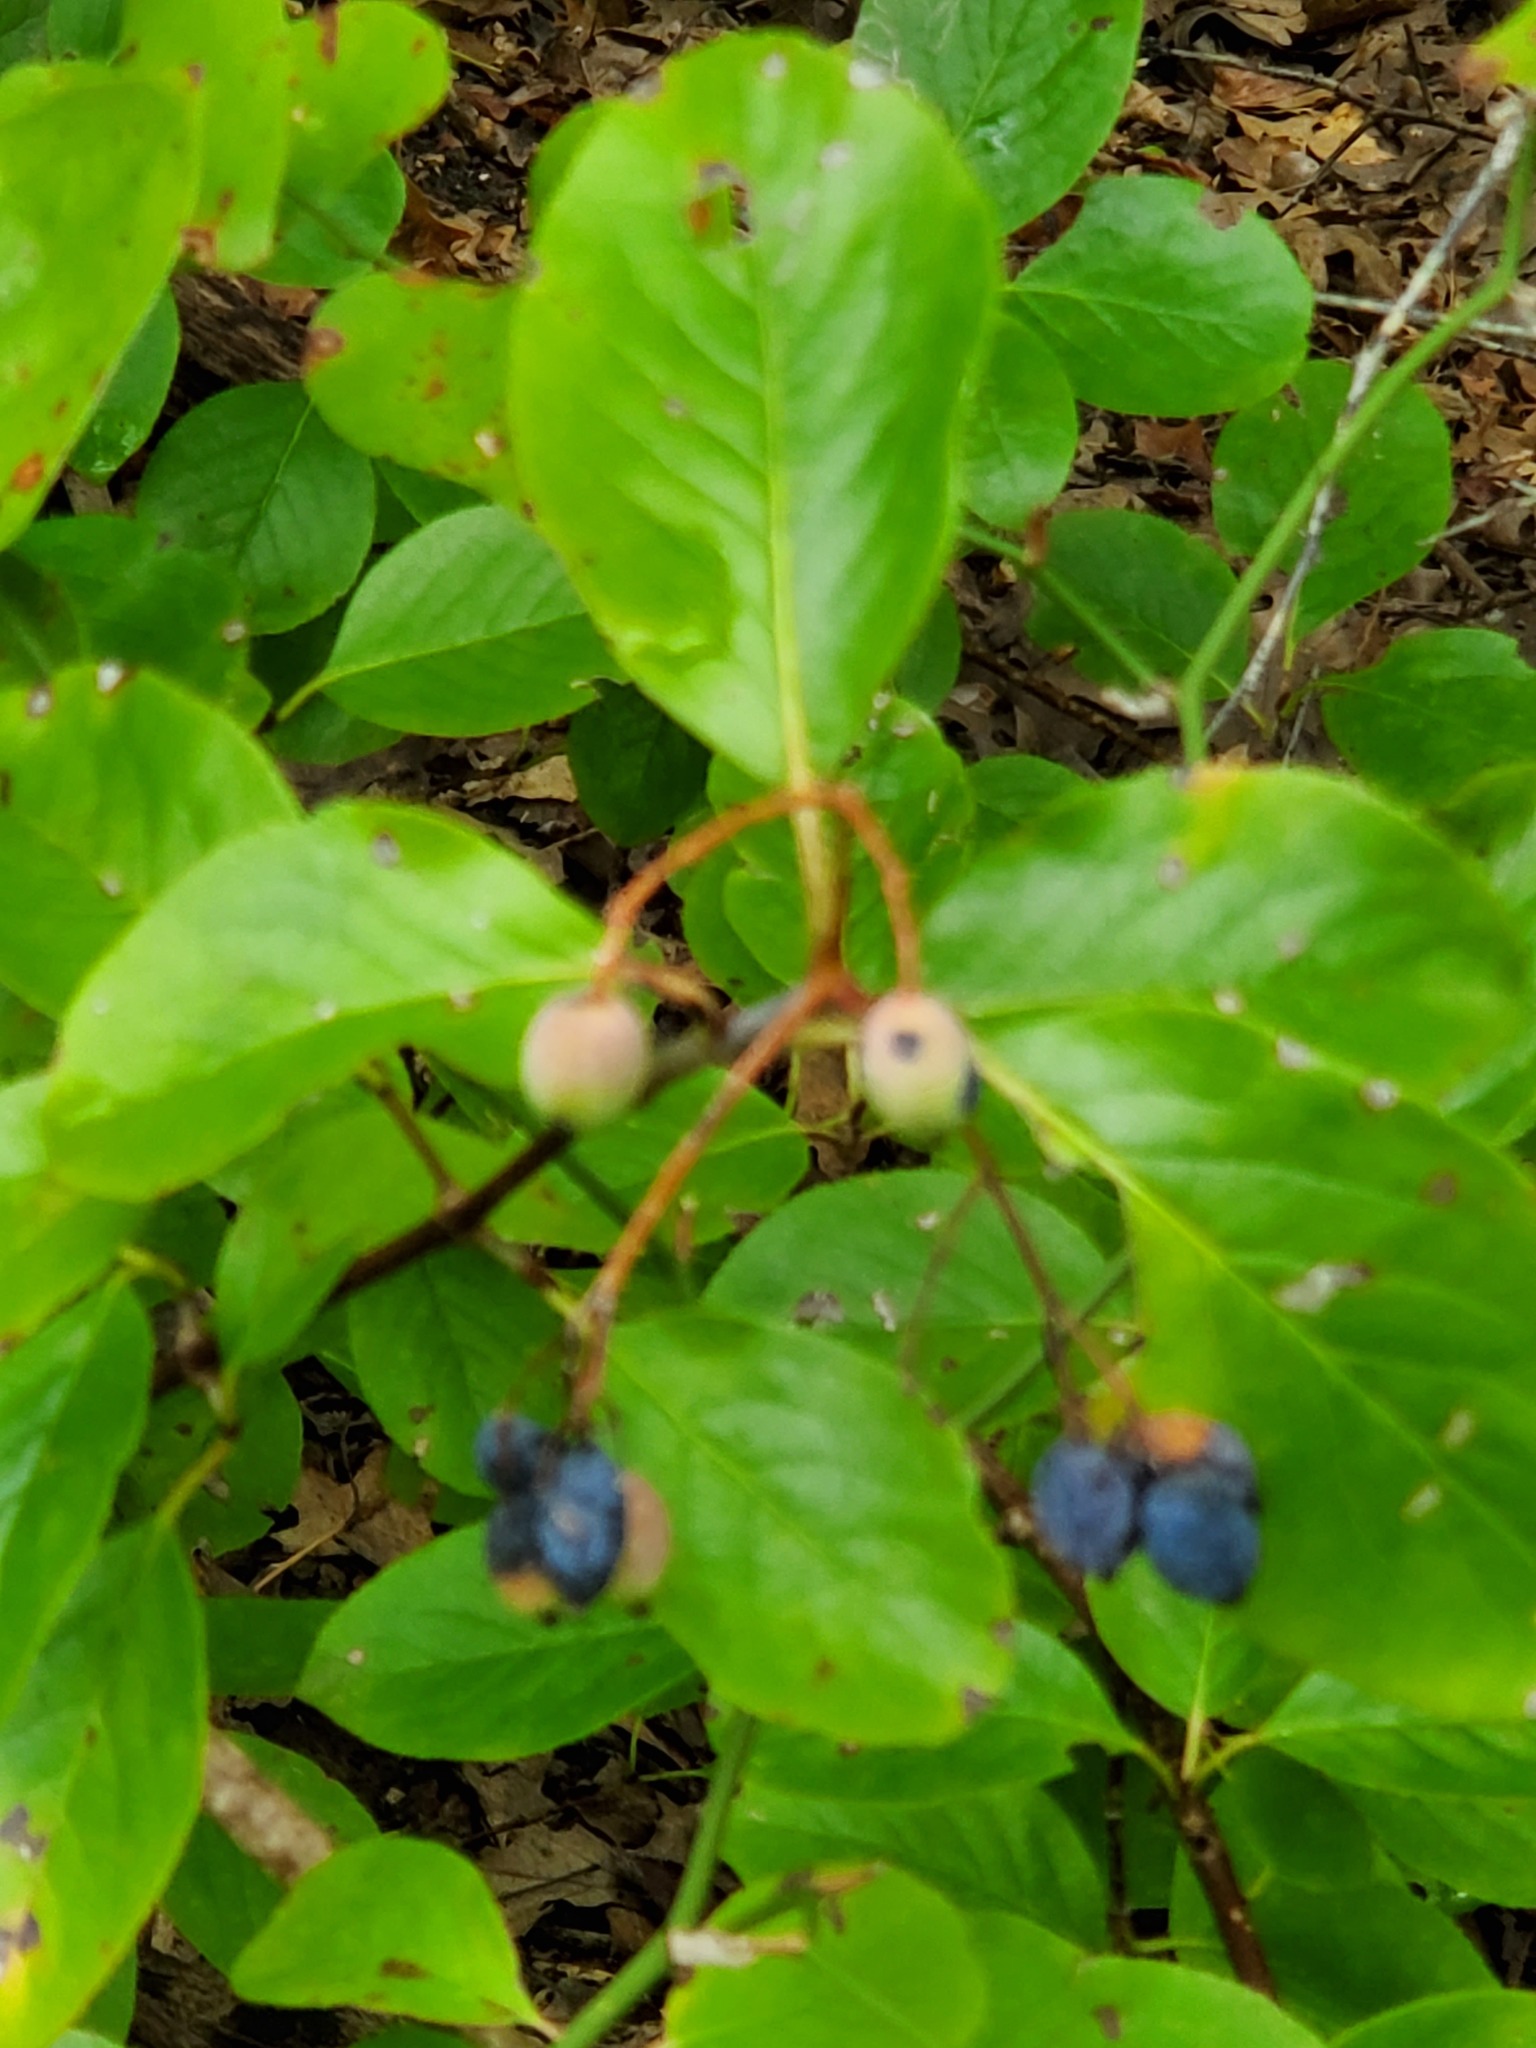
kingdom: Plantae
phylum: Tracheophyta
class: Magnoliopsida
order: Dipsacales
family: Viburnaceae
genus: Viburnum
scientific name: Viburnum rufidulum
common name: Blue haw
